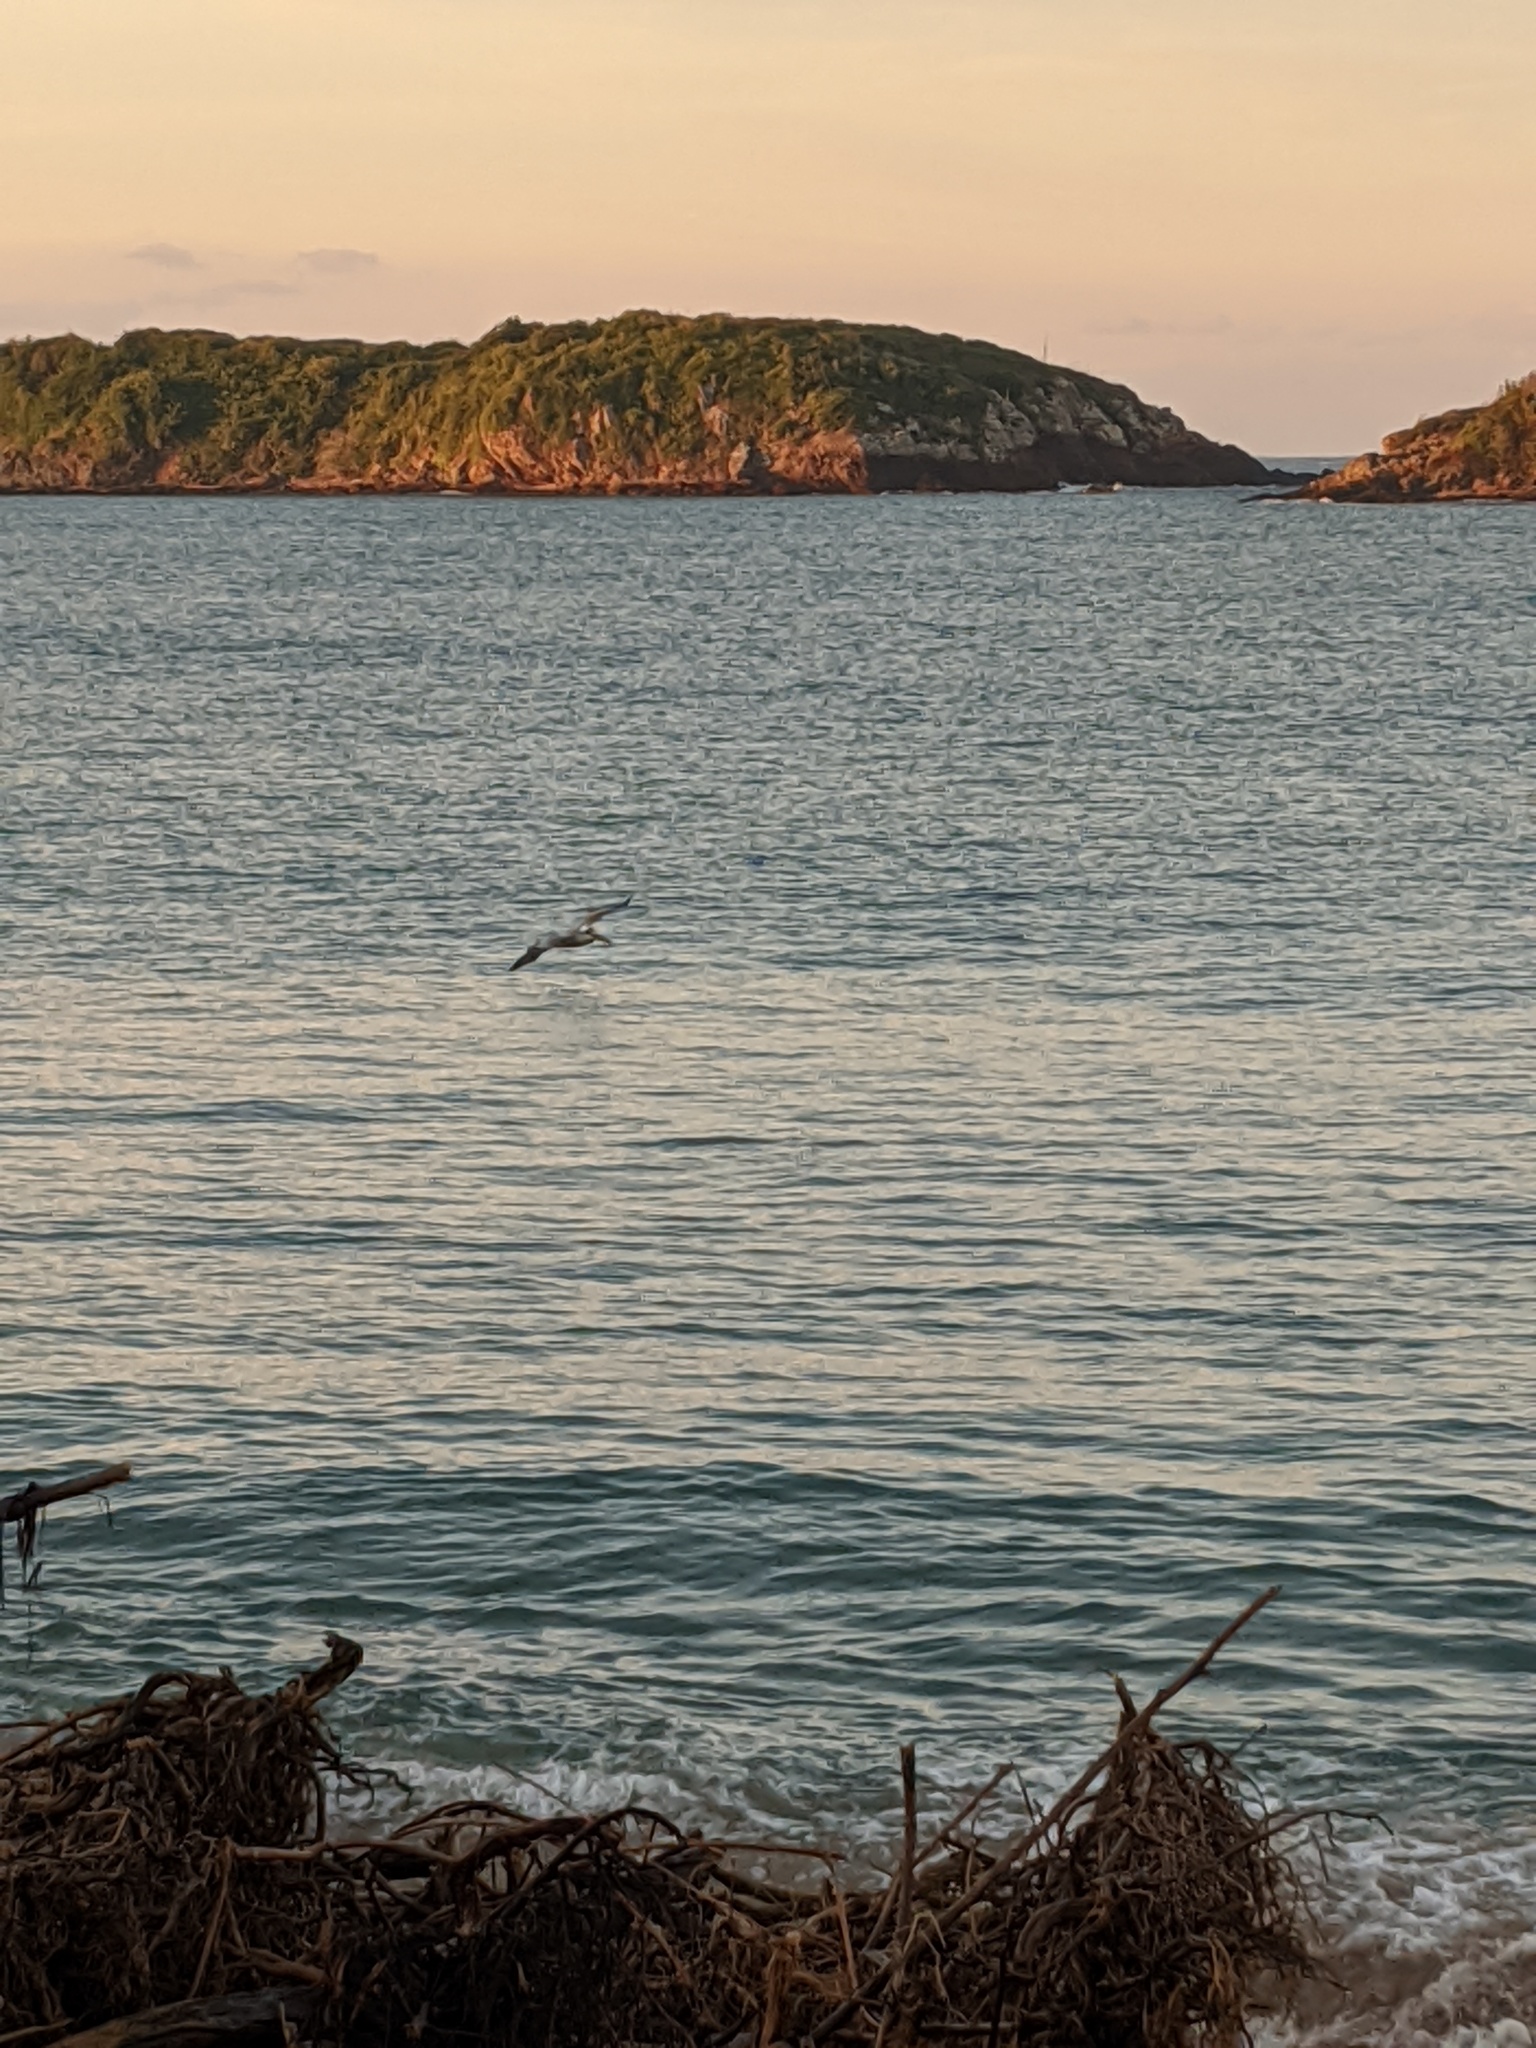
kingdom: Animalia
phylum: Chordata
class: Aves
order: Pelecaniformes
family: Pelecanidae
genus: Pelecanus
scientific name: Pelecanus occidentalis
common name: Brown pelican
